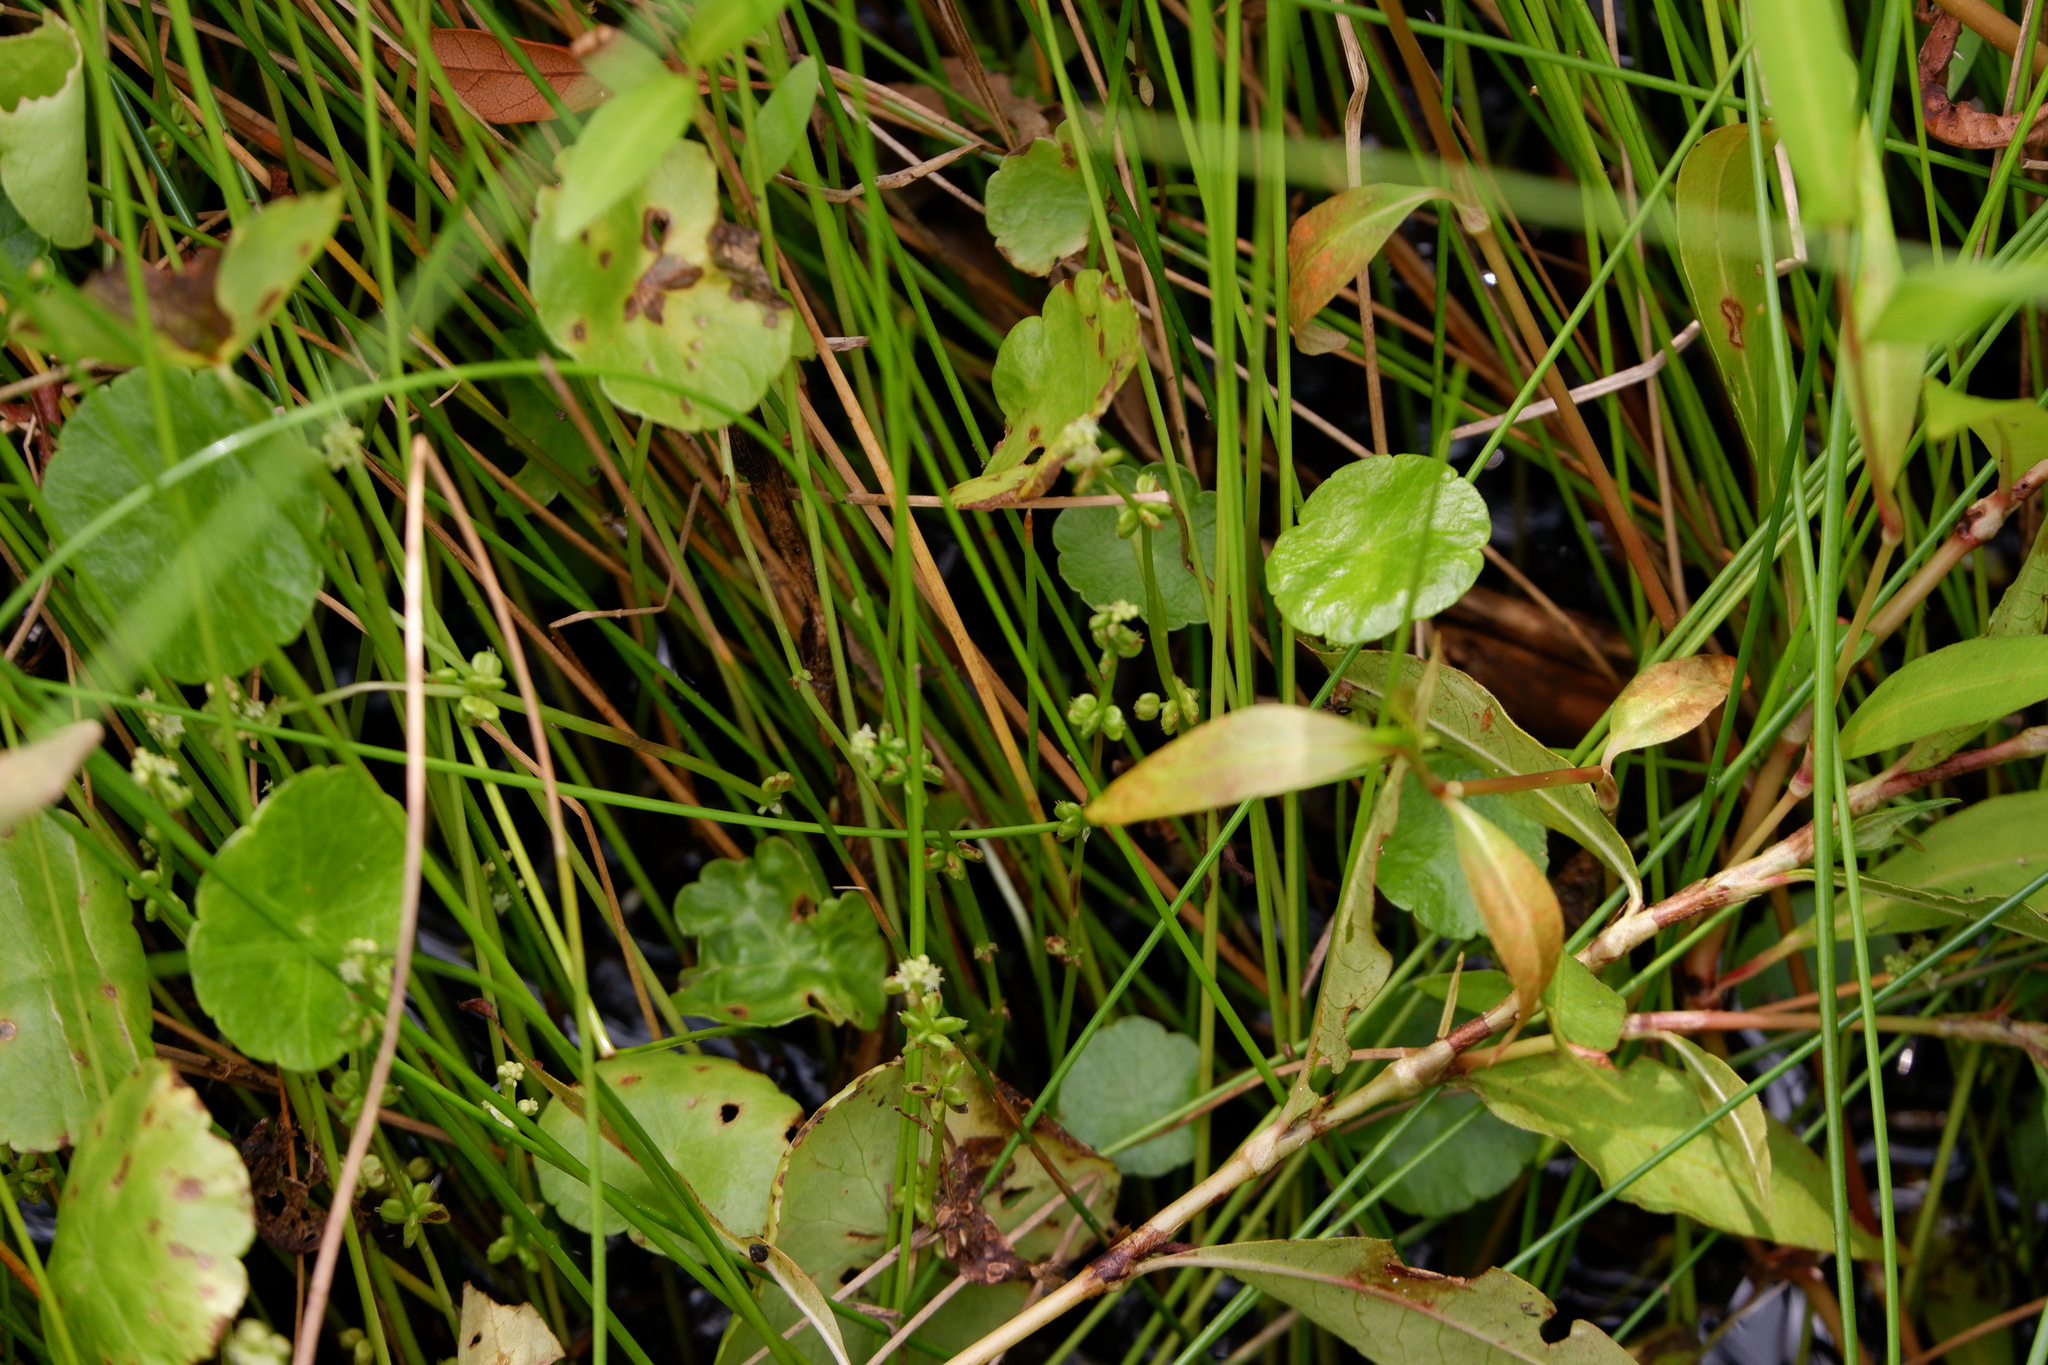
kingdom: Plantae
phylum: Tracheophyta
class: Magnoliopsida
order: Apiales
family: Araliaceae
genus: Hydrocotyle
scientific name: Hydrocotyle verticillata
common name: Whorled marshpennywort
